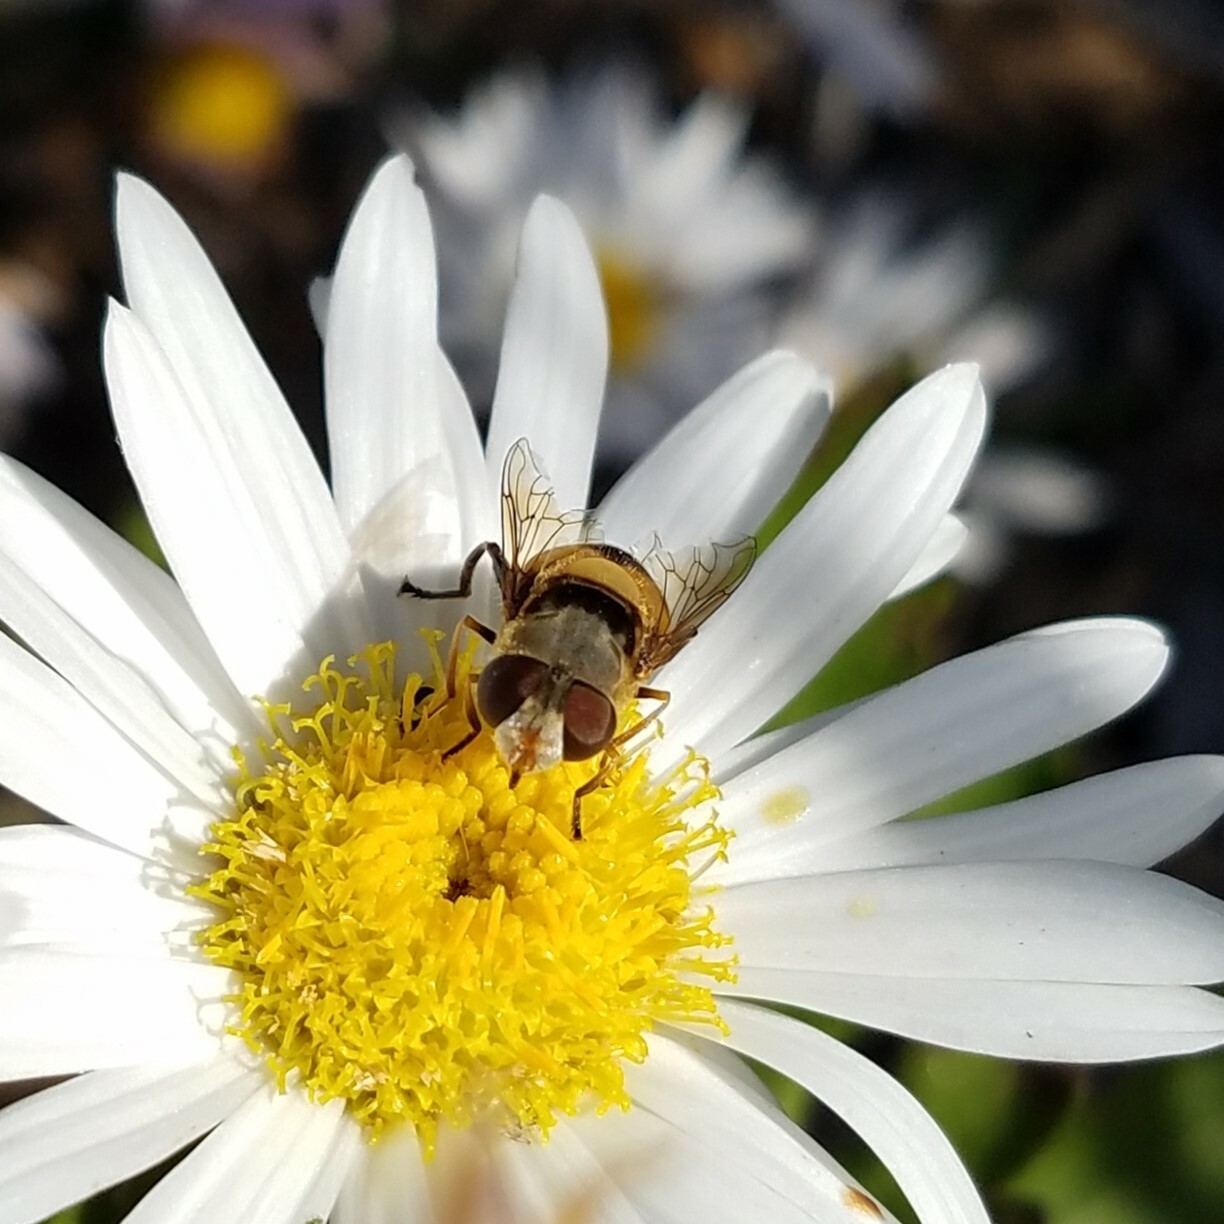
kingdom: Animalia
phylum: Arthropoda
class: Insecta
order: Diptera
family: Syrphidae
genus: Palpada
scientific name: Palpada pusilla
